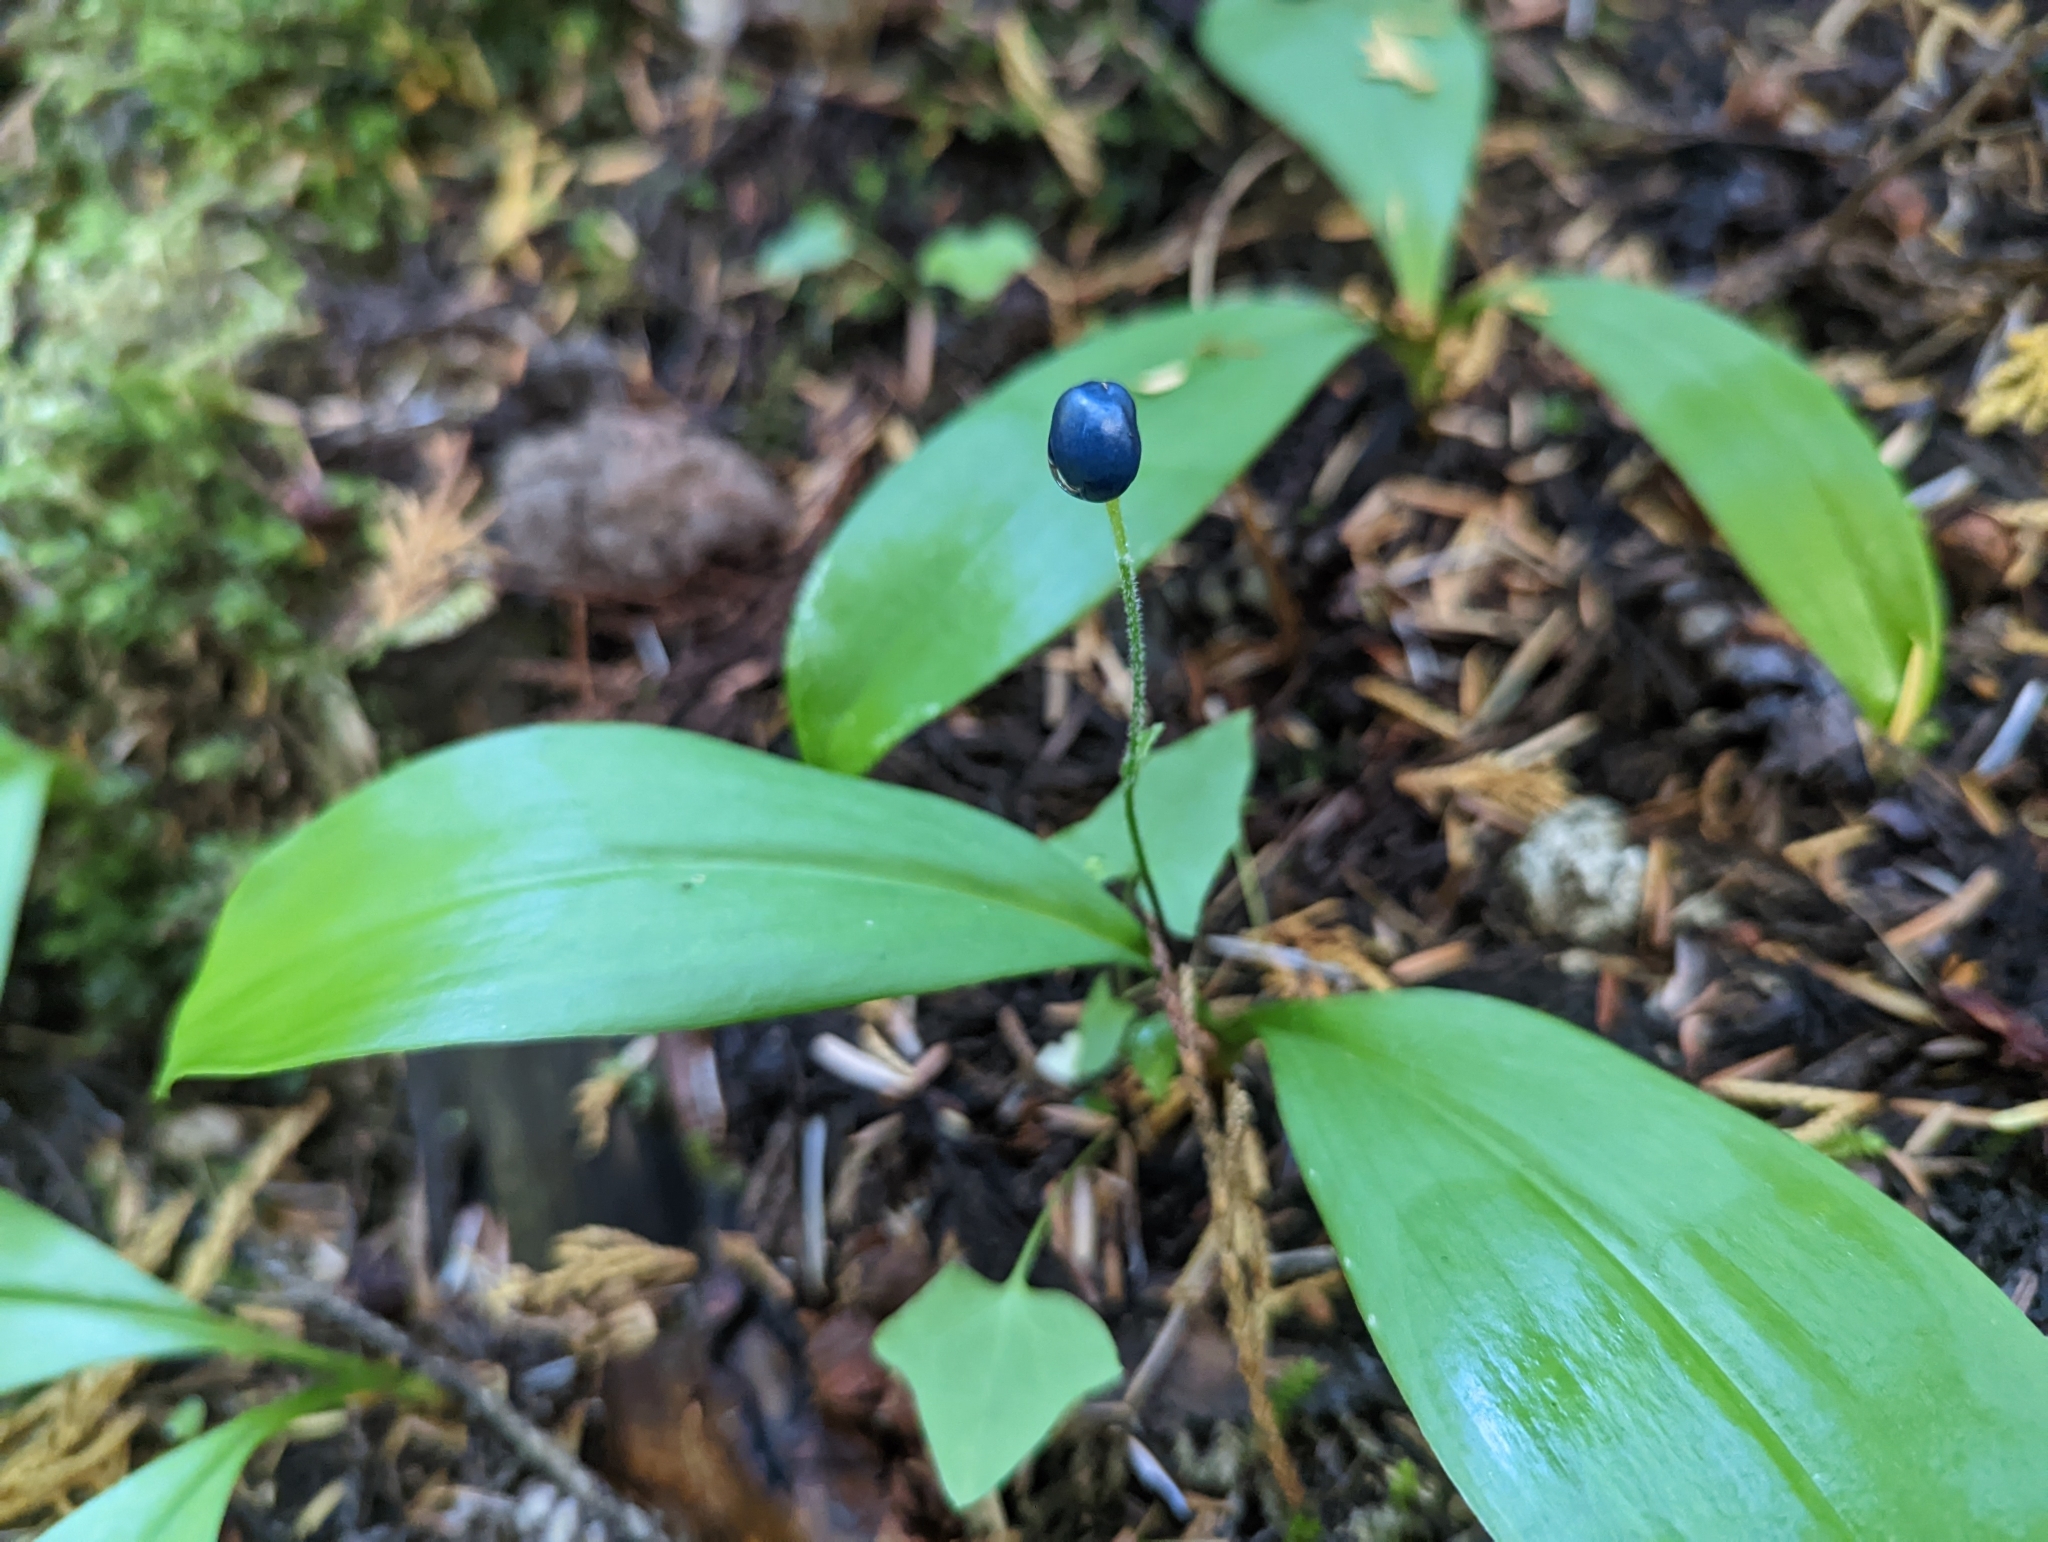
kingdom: Plantae
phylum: Tracheophyta
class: Liliopsida
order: Liliales
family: Liliaceae
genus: Clintonia
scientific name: Clintonia uniflora
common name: Queen's cup
